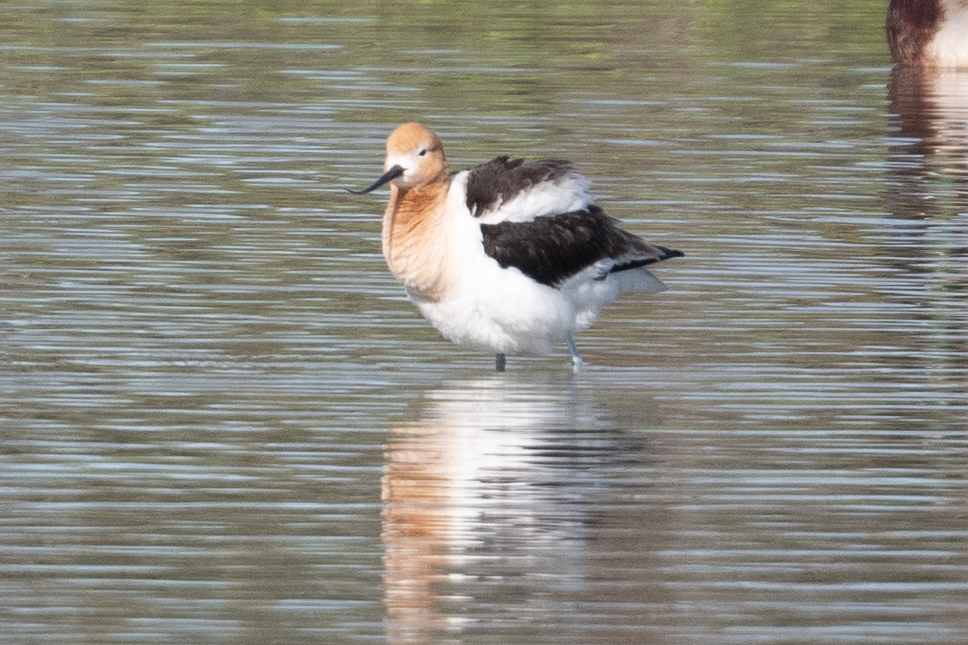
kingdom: Animalia
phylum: Chordata
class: Aves
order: Charadriiformes
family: Recurvirostridae
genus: Recurvirostra
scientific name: Recurvirostra americana
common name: American avocet
